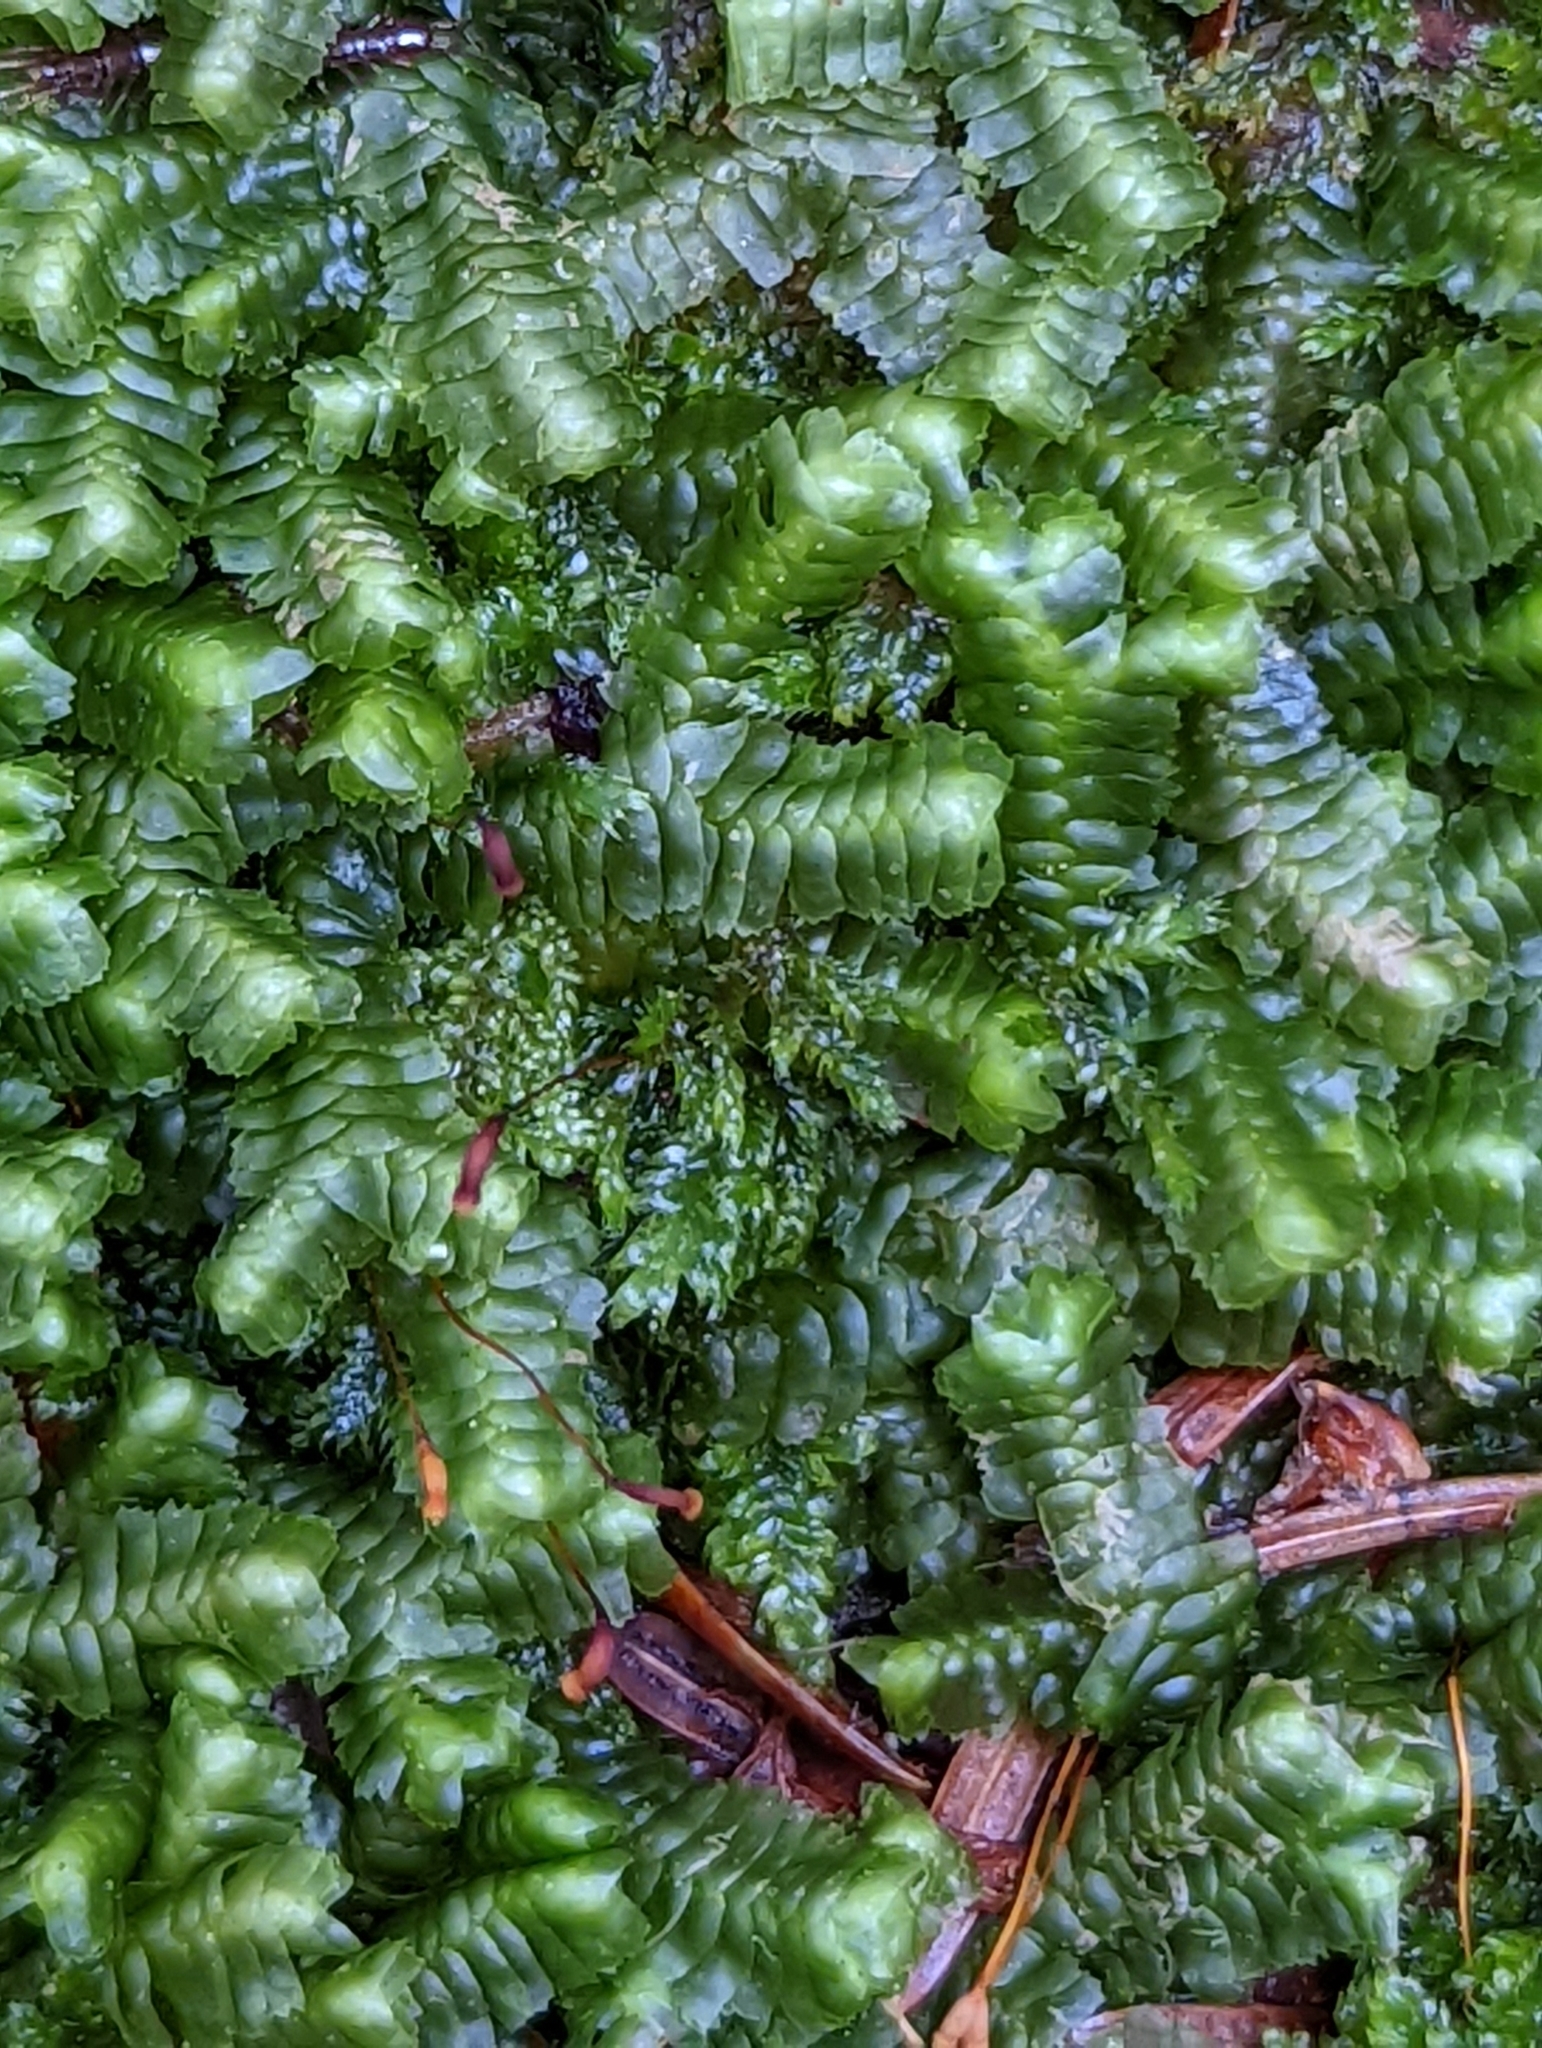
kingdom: Plantae
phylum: Marchantiophyta
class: Jungermanniopsida
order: Jungermanniales
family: Lepidoziaceae
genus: Bazzania
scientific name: Bazzania trilobata
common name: Three-lobed whipwort
